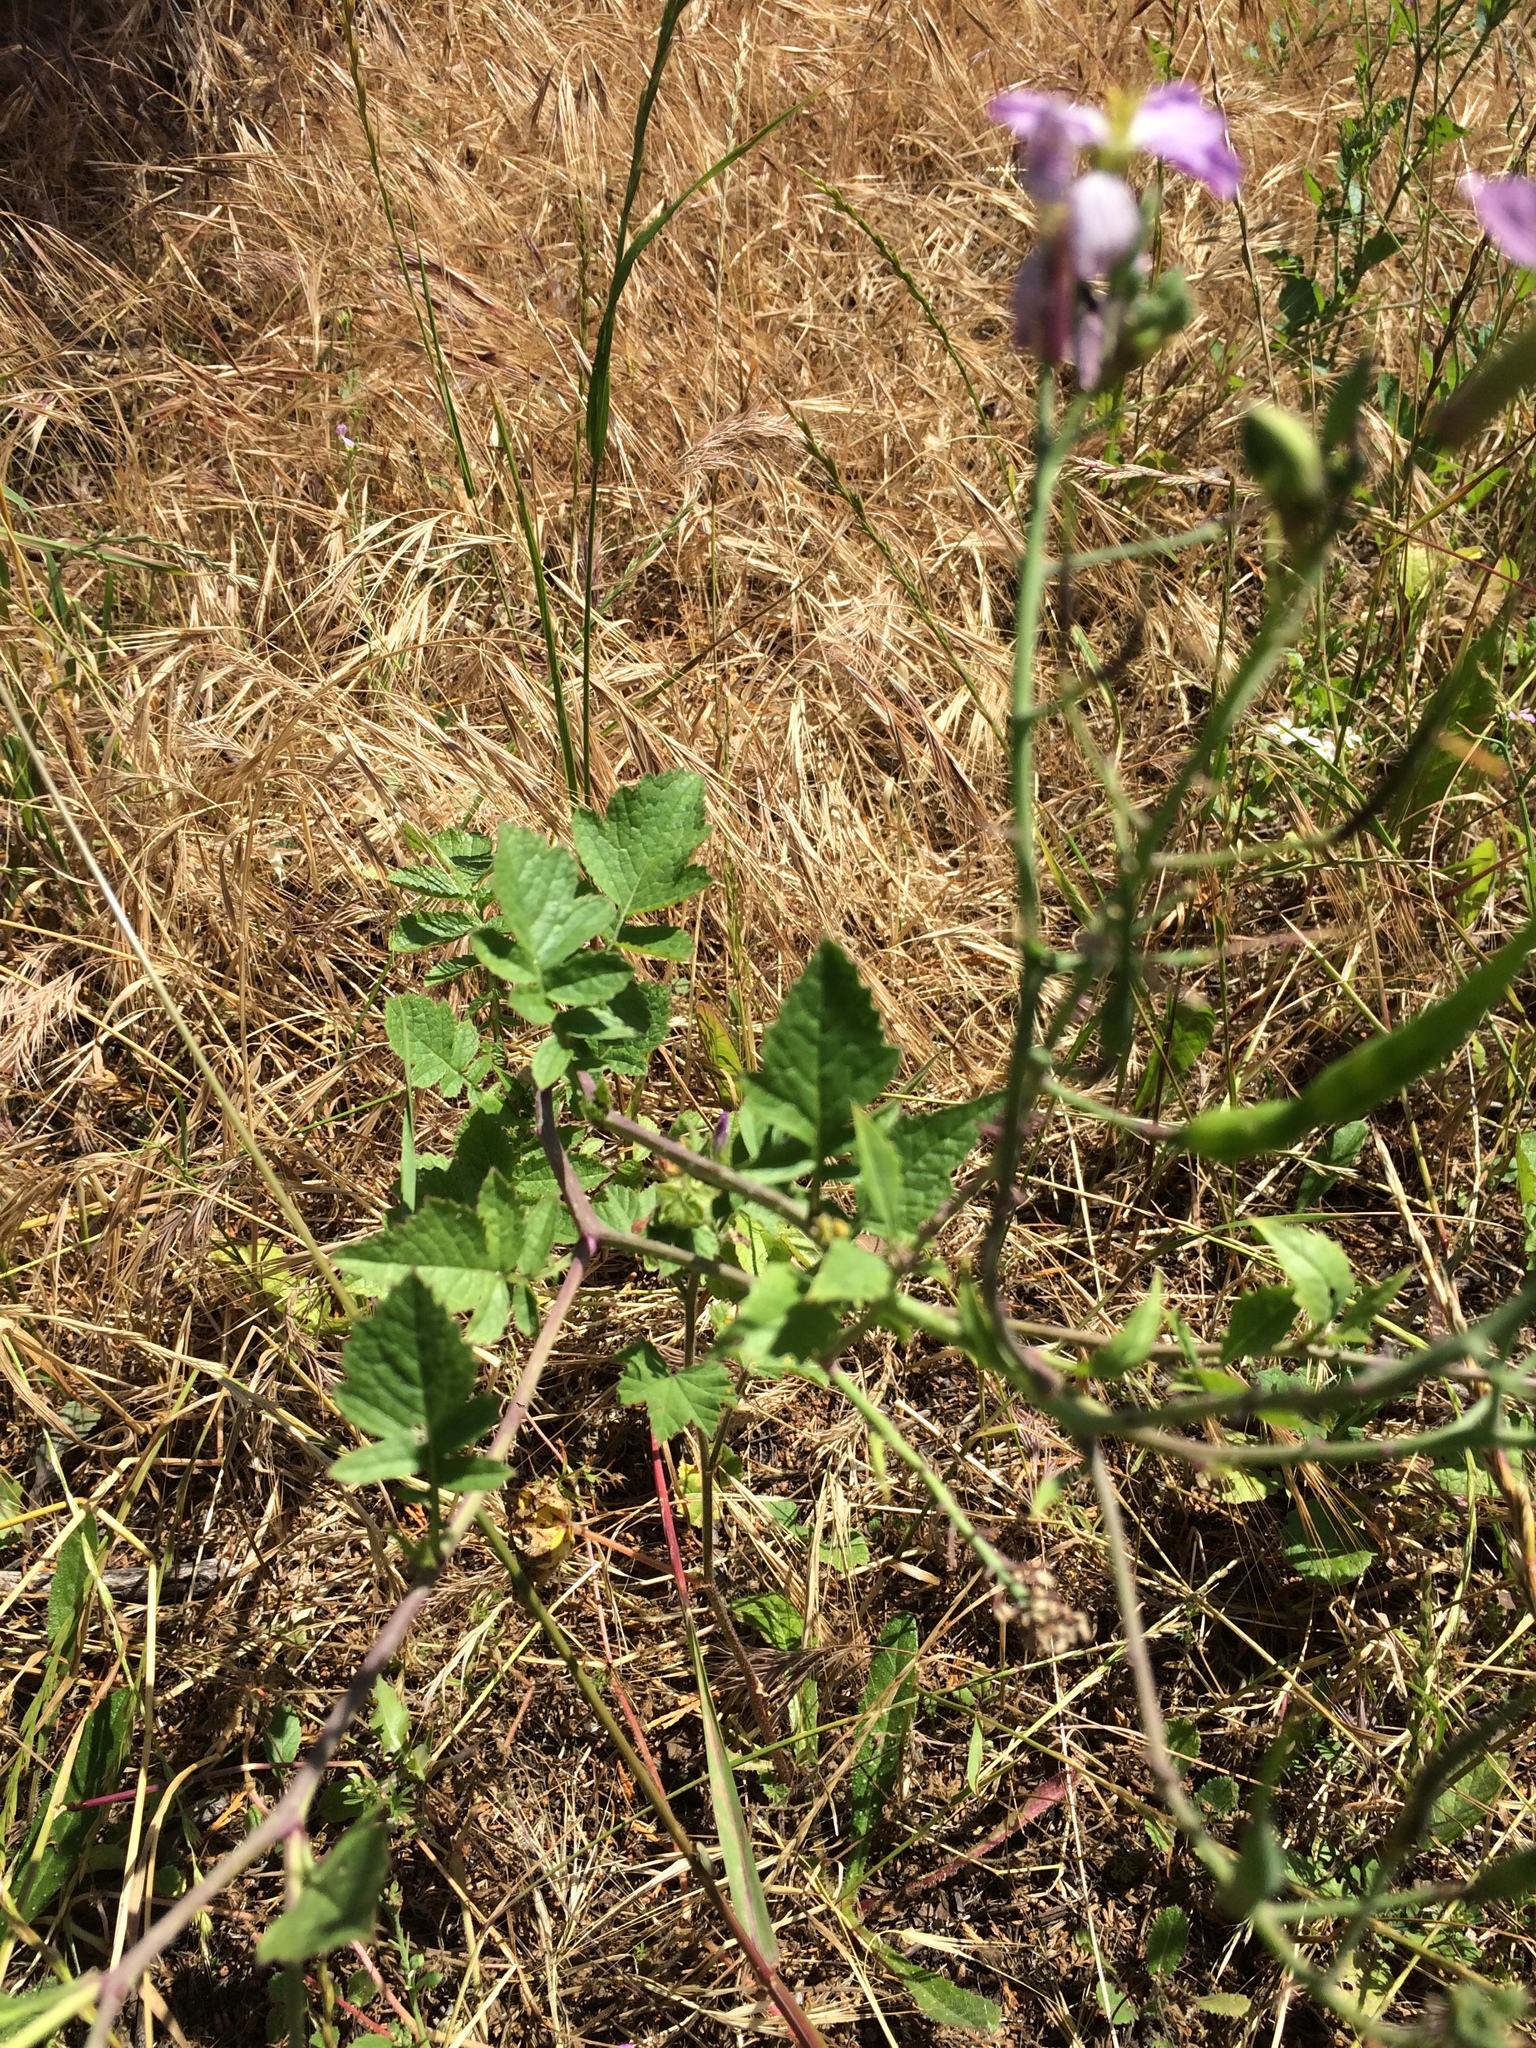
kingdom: Plantae
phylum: Tracheophyta
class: Magnoliopsida
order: Brassicales
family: Brassicaceae
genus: Raphanus
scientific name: Raphanus sativus
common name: Cultivated radish
